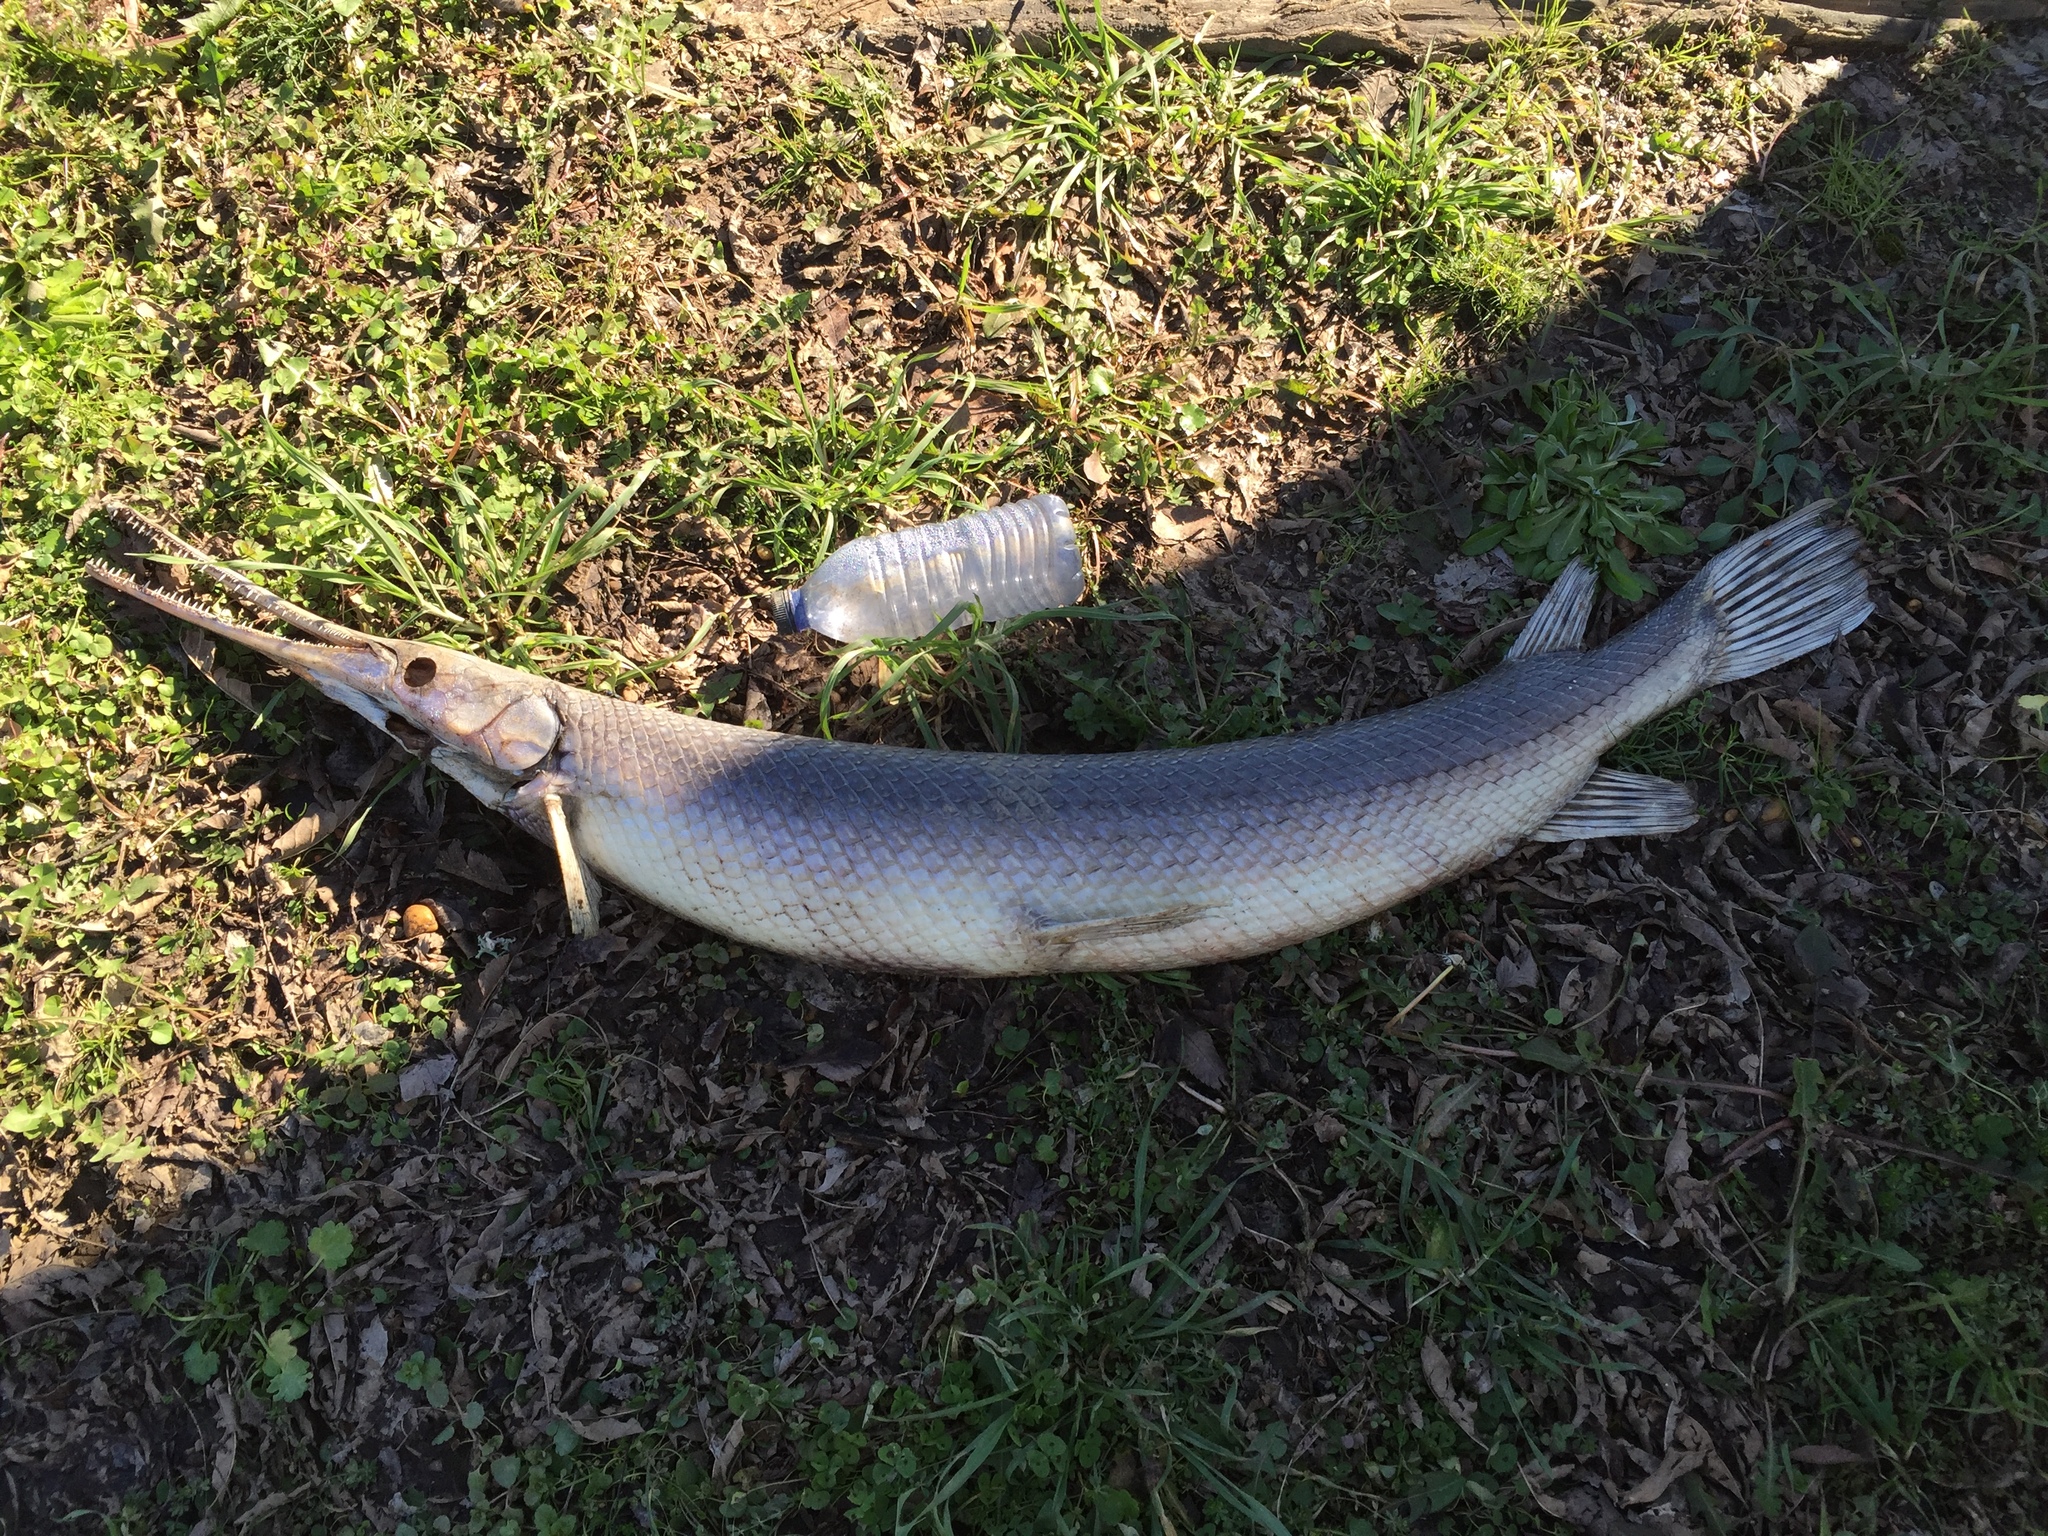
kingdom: Animalia
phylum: Chordata
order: Lepisosteiformes
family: Lepisosteidae
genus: Lepisosteus
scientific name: Lepisosteus osseus
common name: Longnose gar
